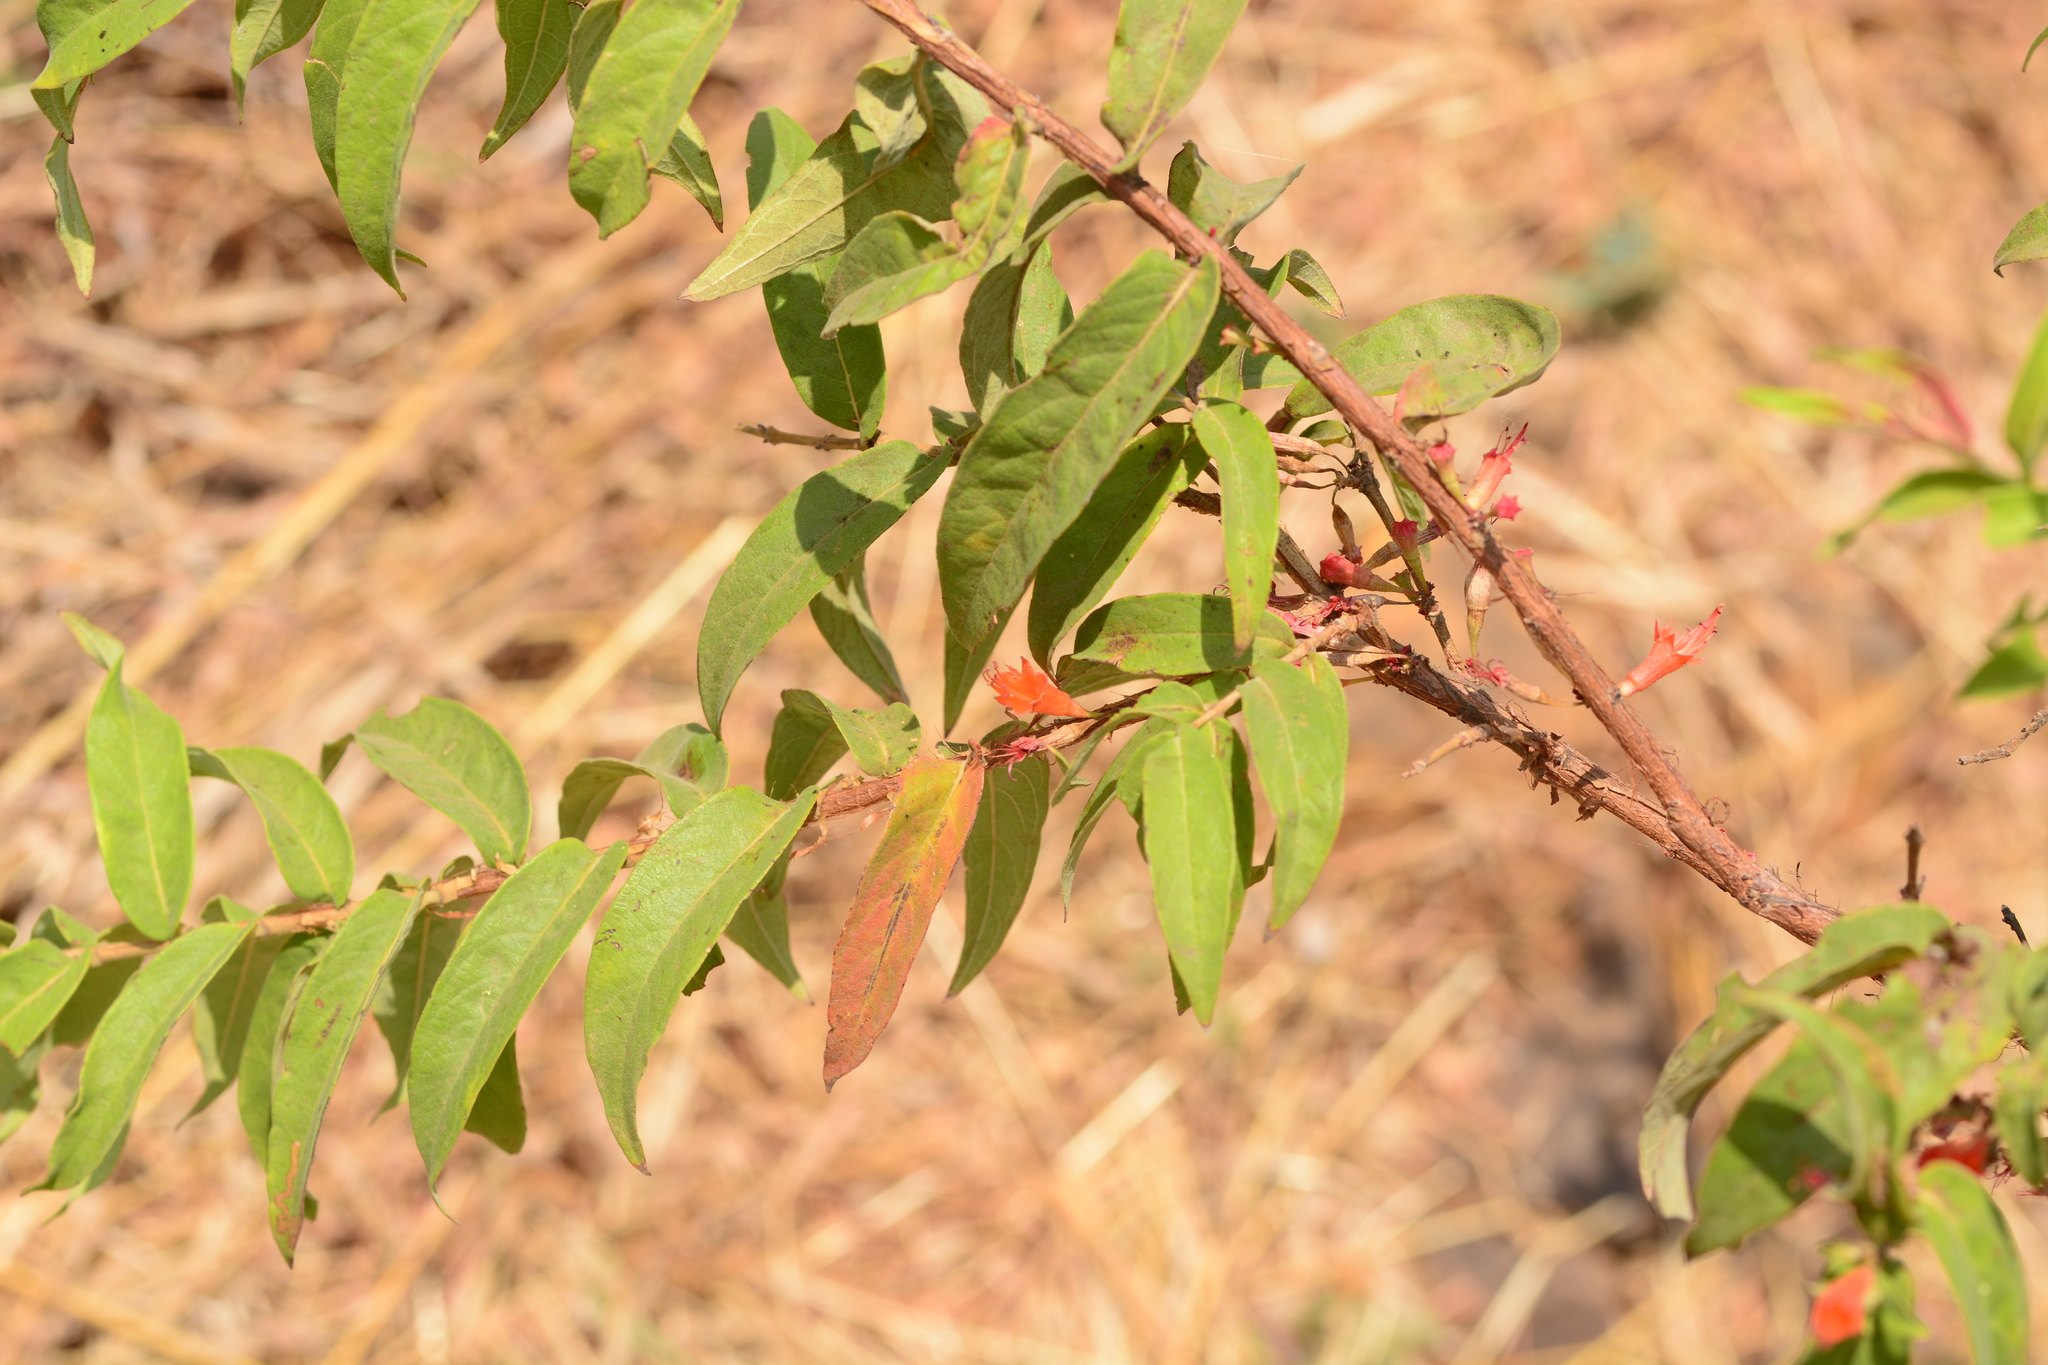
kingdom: Plantae
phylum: Tracheophyta
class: Magnoliopsida
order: Myrtales
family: Lythraceae
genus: Woodfordia
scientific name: Woodfordia fruticosa
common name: Shiranji-tea
